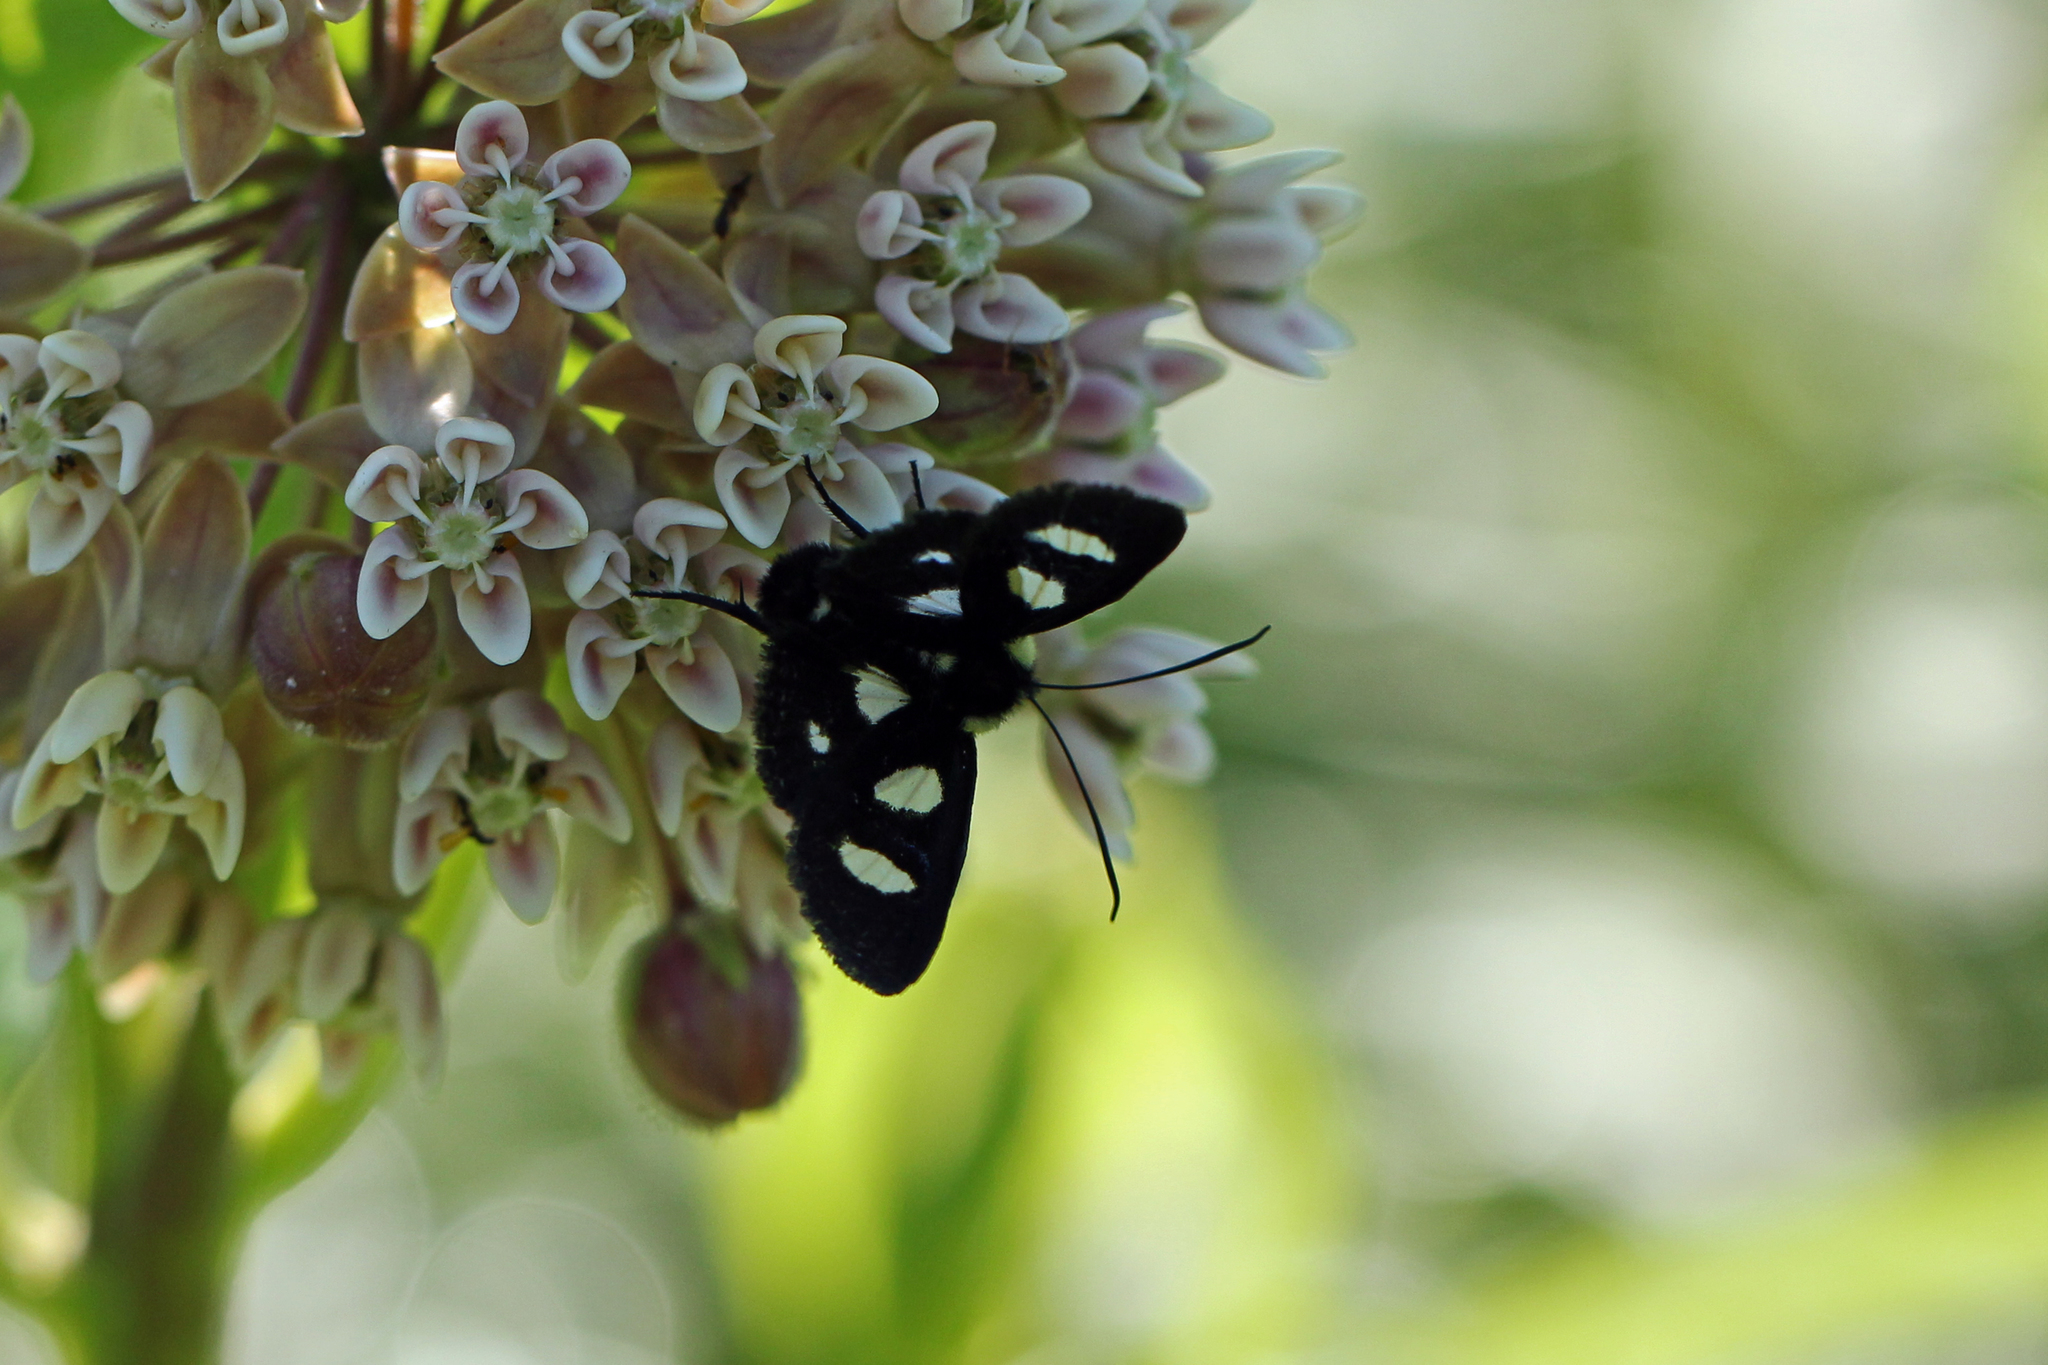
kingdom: Animalia
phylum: Arthropoda
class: Insecta
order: Lepidoptera
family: Noctuidae
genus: Alypia
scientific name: Alypia octomaculata
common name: Eight-spotted forester
